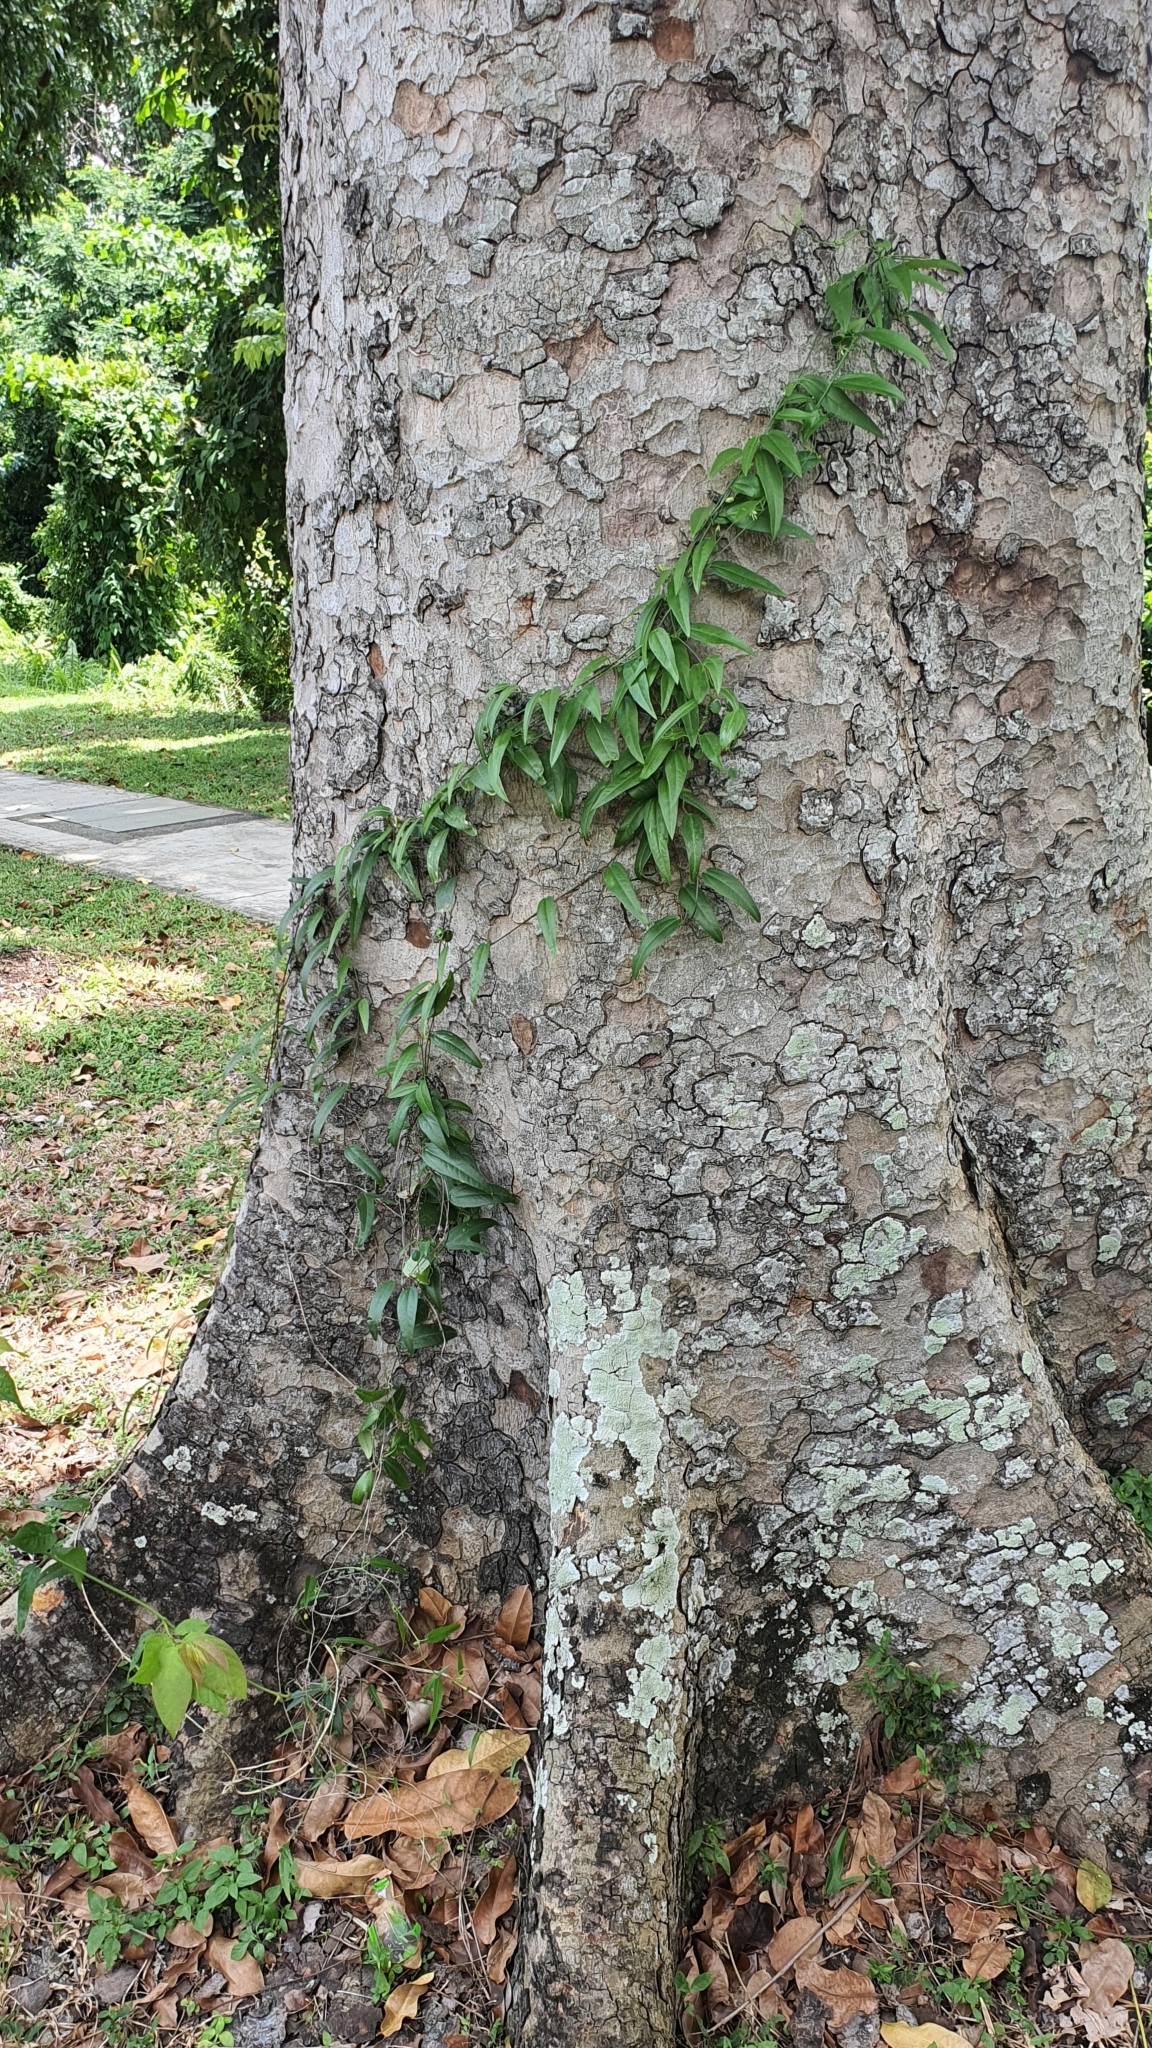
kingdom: Plantae
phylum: Tracheophyta
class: Magnoliopsida
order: Malpighiales
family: Passifloraceae
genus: Passiflora
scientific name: Passiflora suberosa
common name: Wild passionfruit
